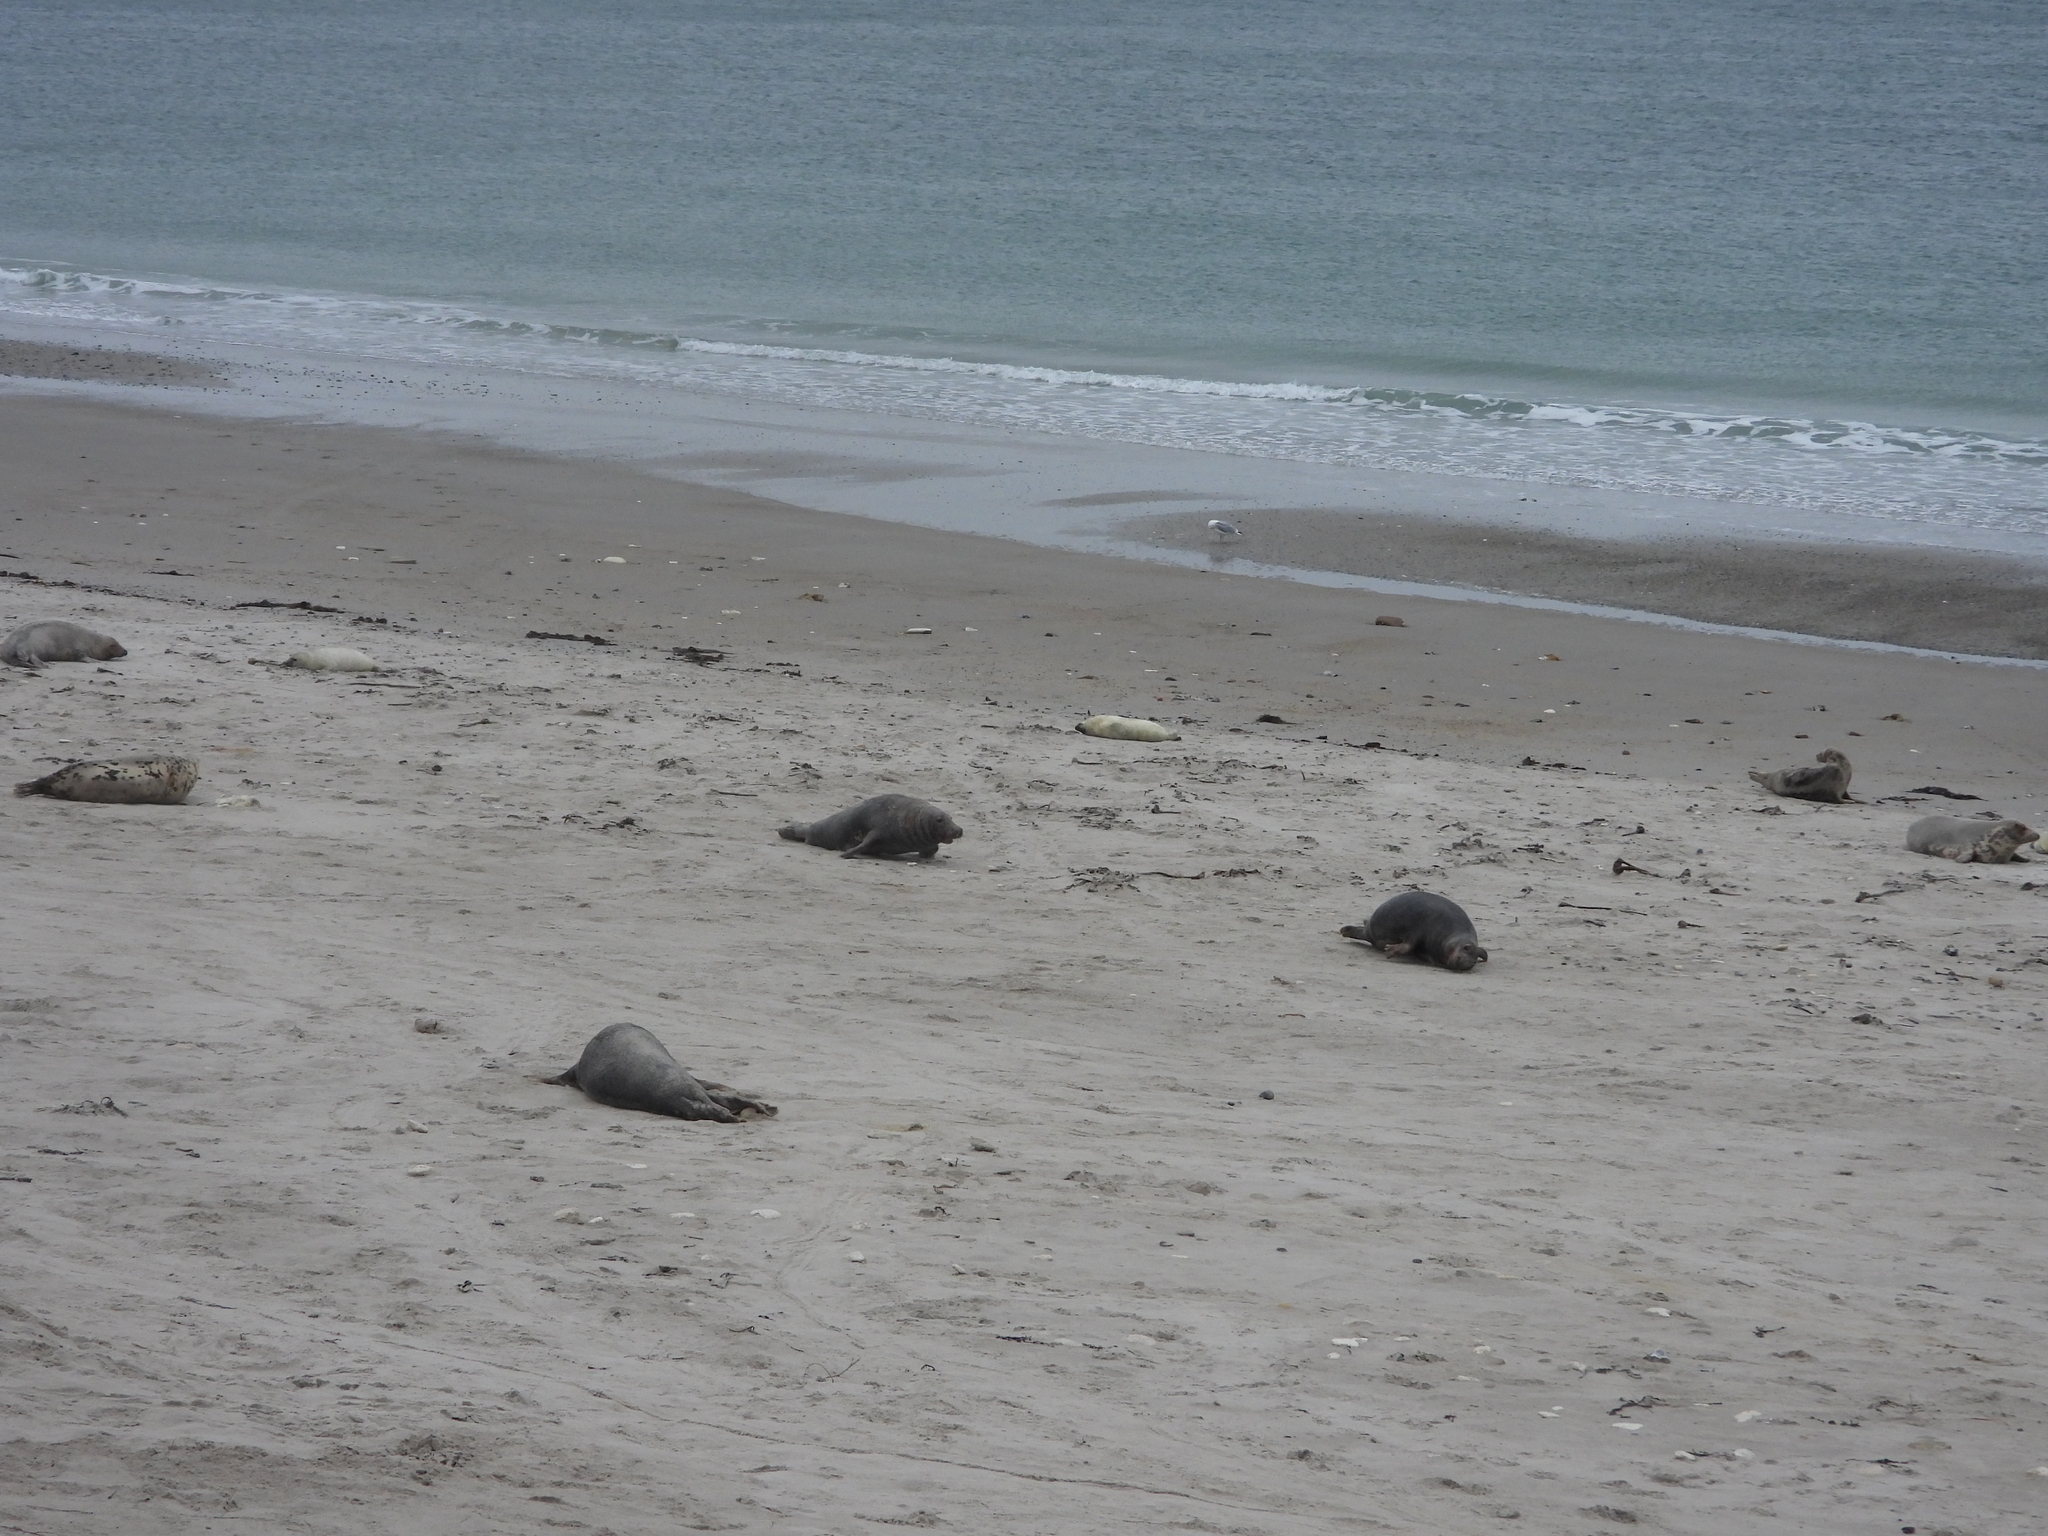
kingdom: Animalia
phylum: Chordata
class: Mammalia
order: Carnivora
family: Phocidae
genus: Halichoerus
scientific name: Halichoerus grypus
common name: Grey seal
